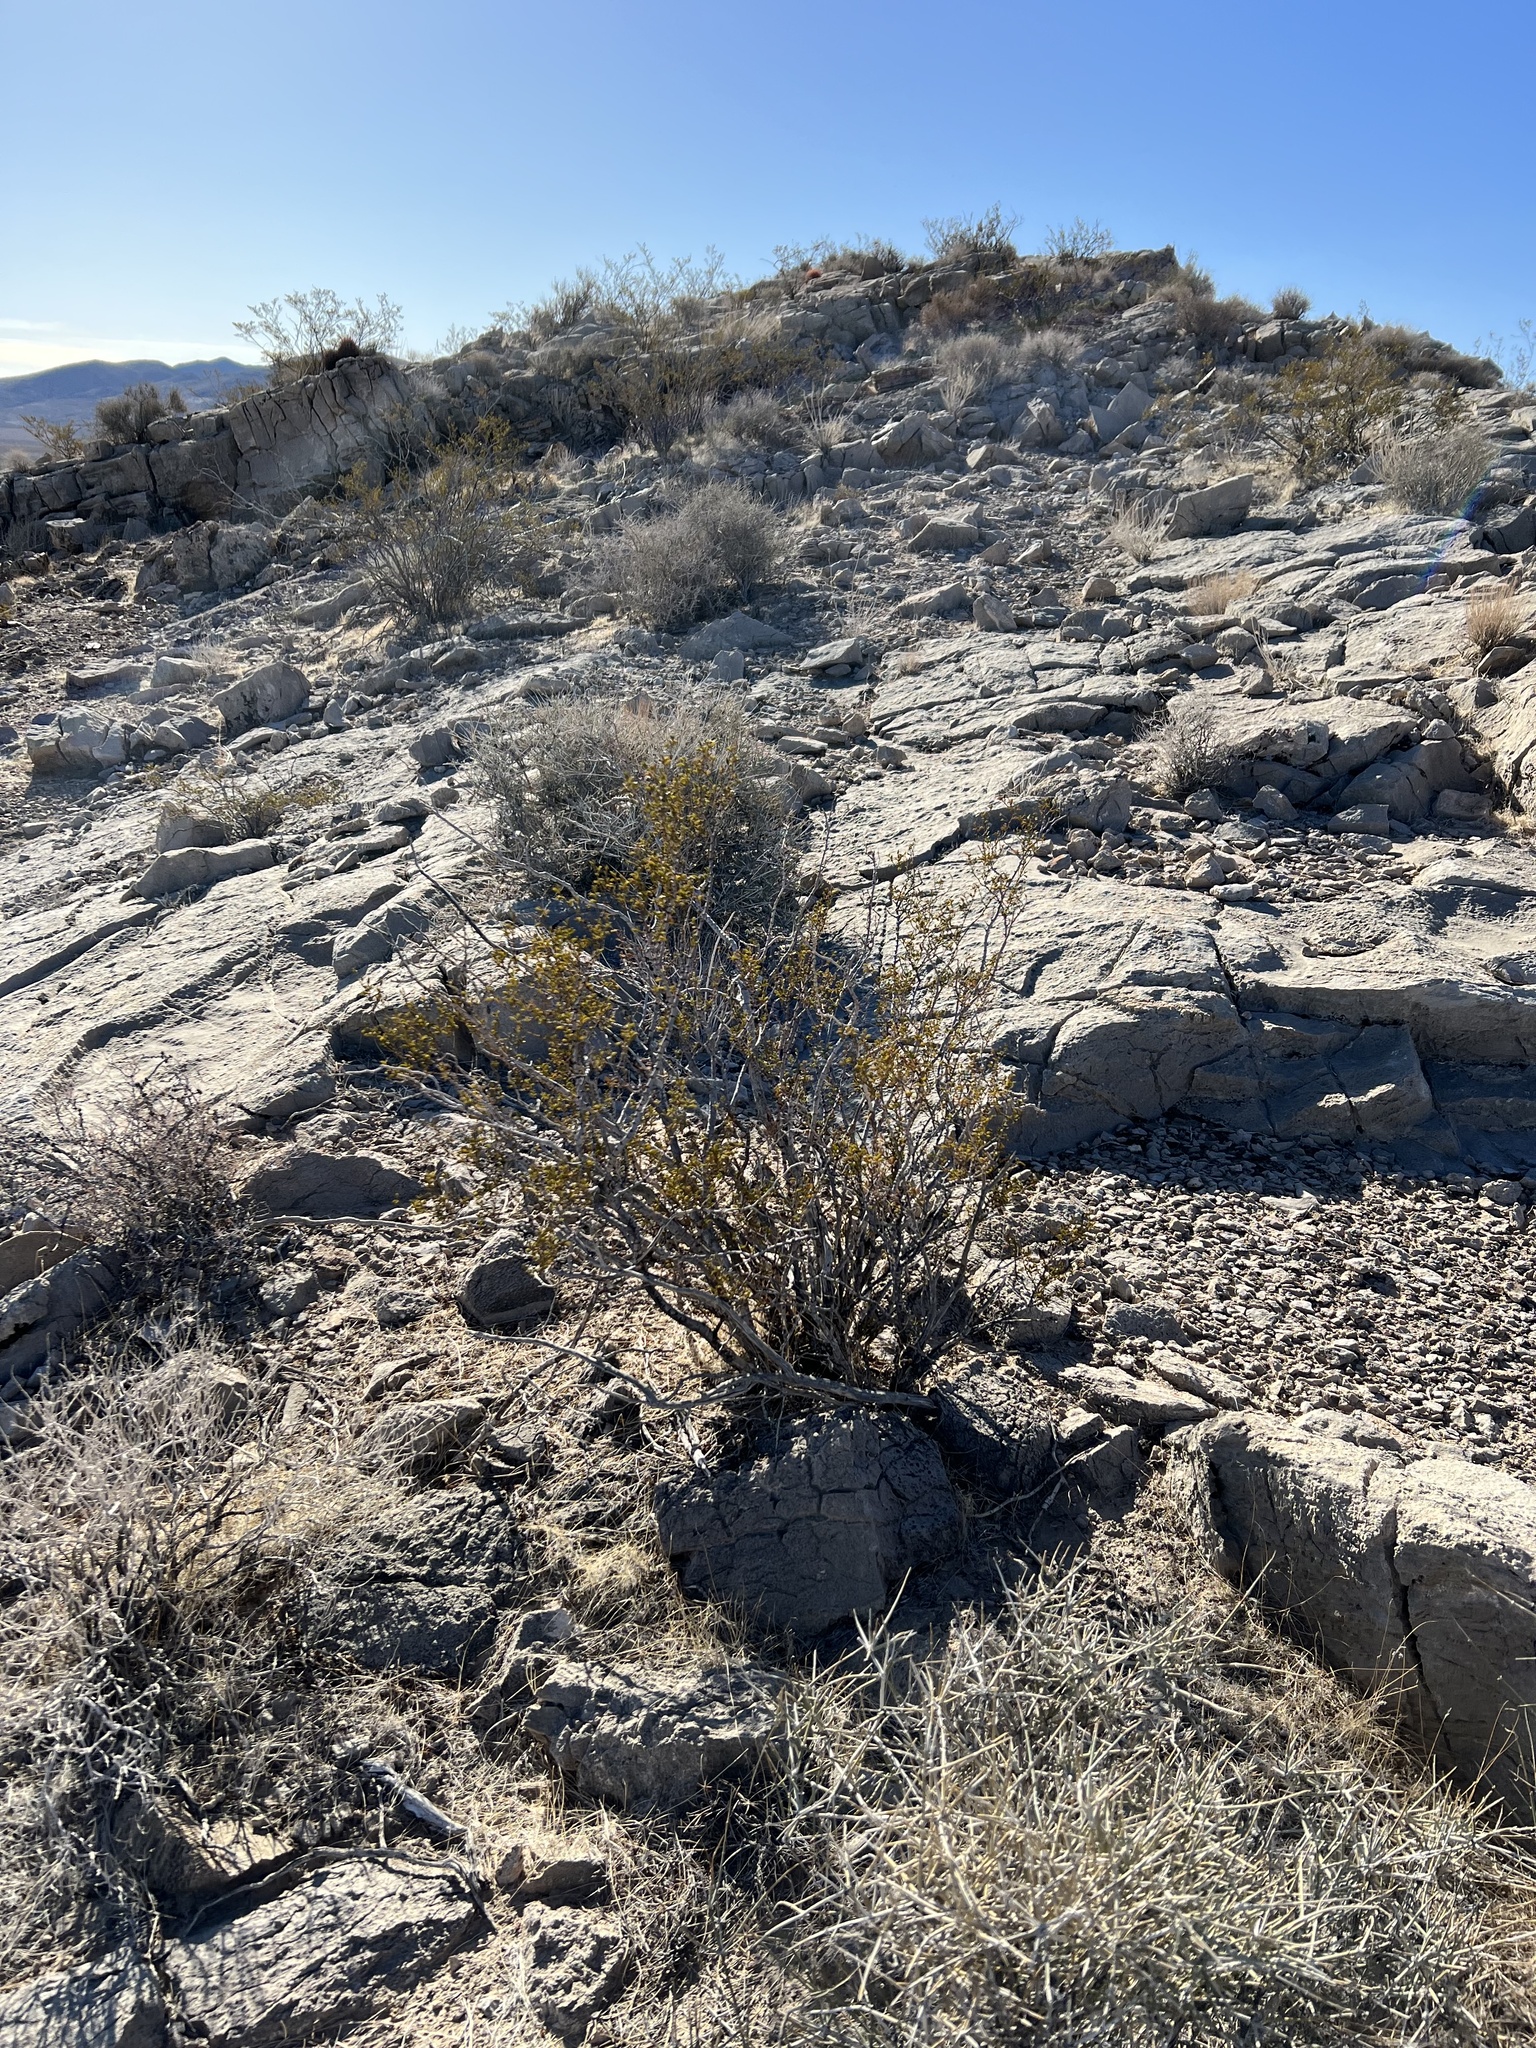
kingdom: Plantae
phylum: Tracheophyta
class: Magnoliopsida
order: Zygophyllales
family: Zygophyllaceae
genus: Larrea
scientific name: Larrea tridentata
